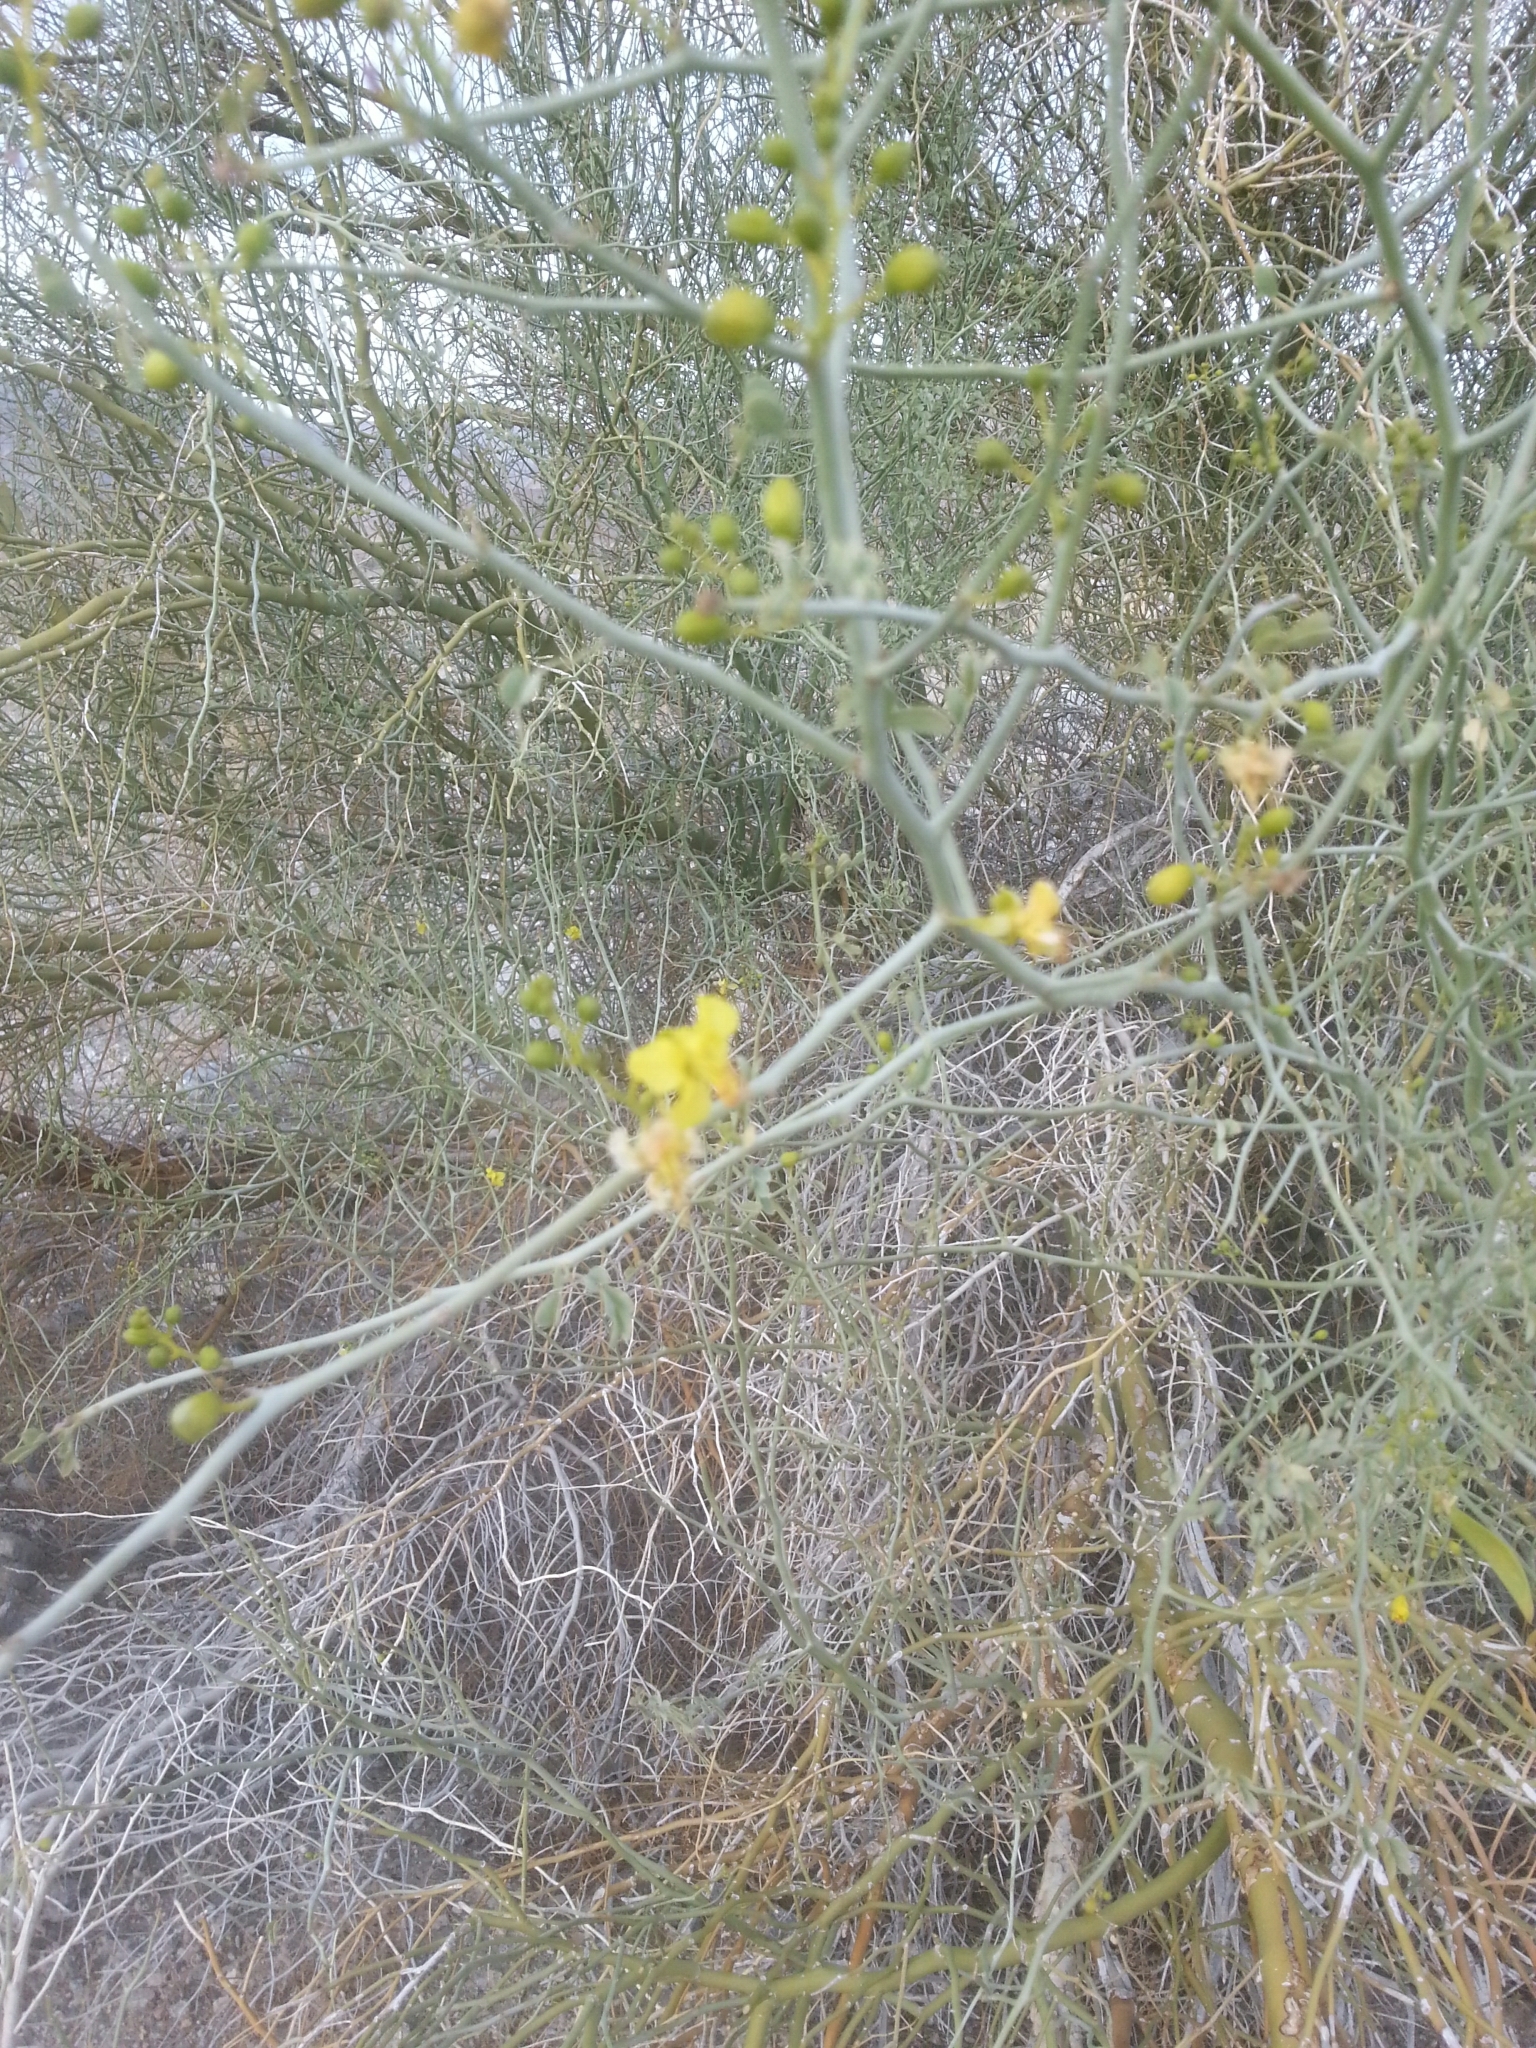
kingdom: Plantae
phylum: Tracheophyta
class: Magnoliopsida
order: Fabales
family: Fabaceae
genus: Parkinsonia
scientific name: Parkinsonia florida
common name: Blue paloverde
